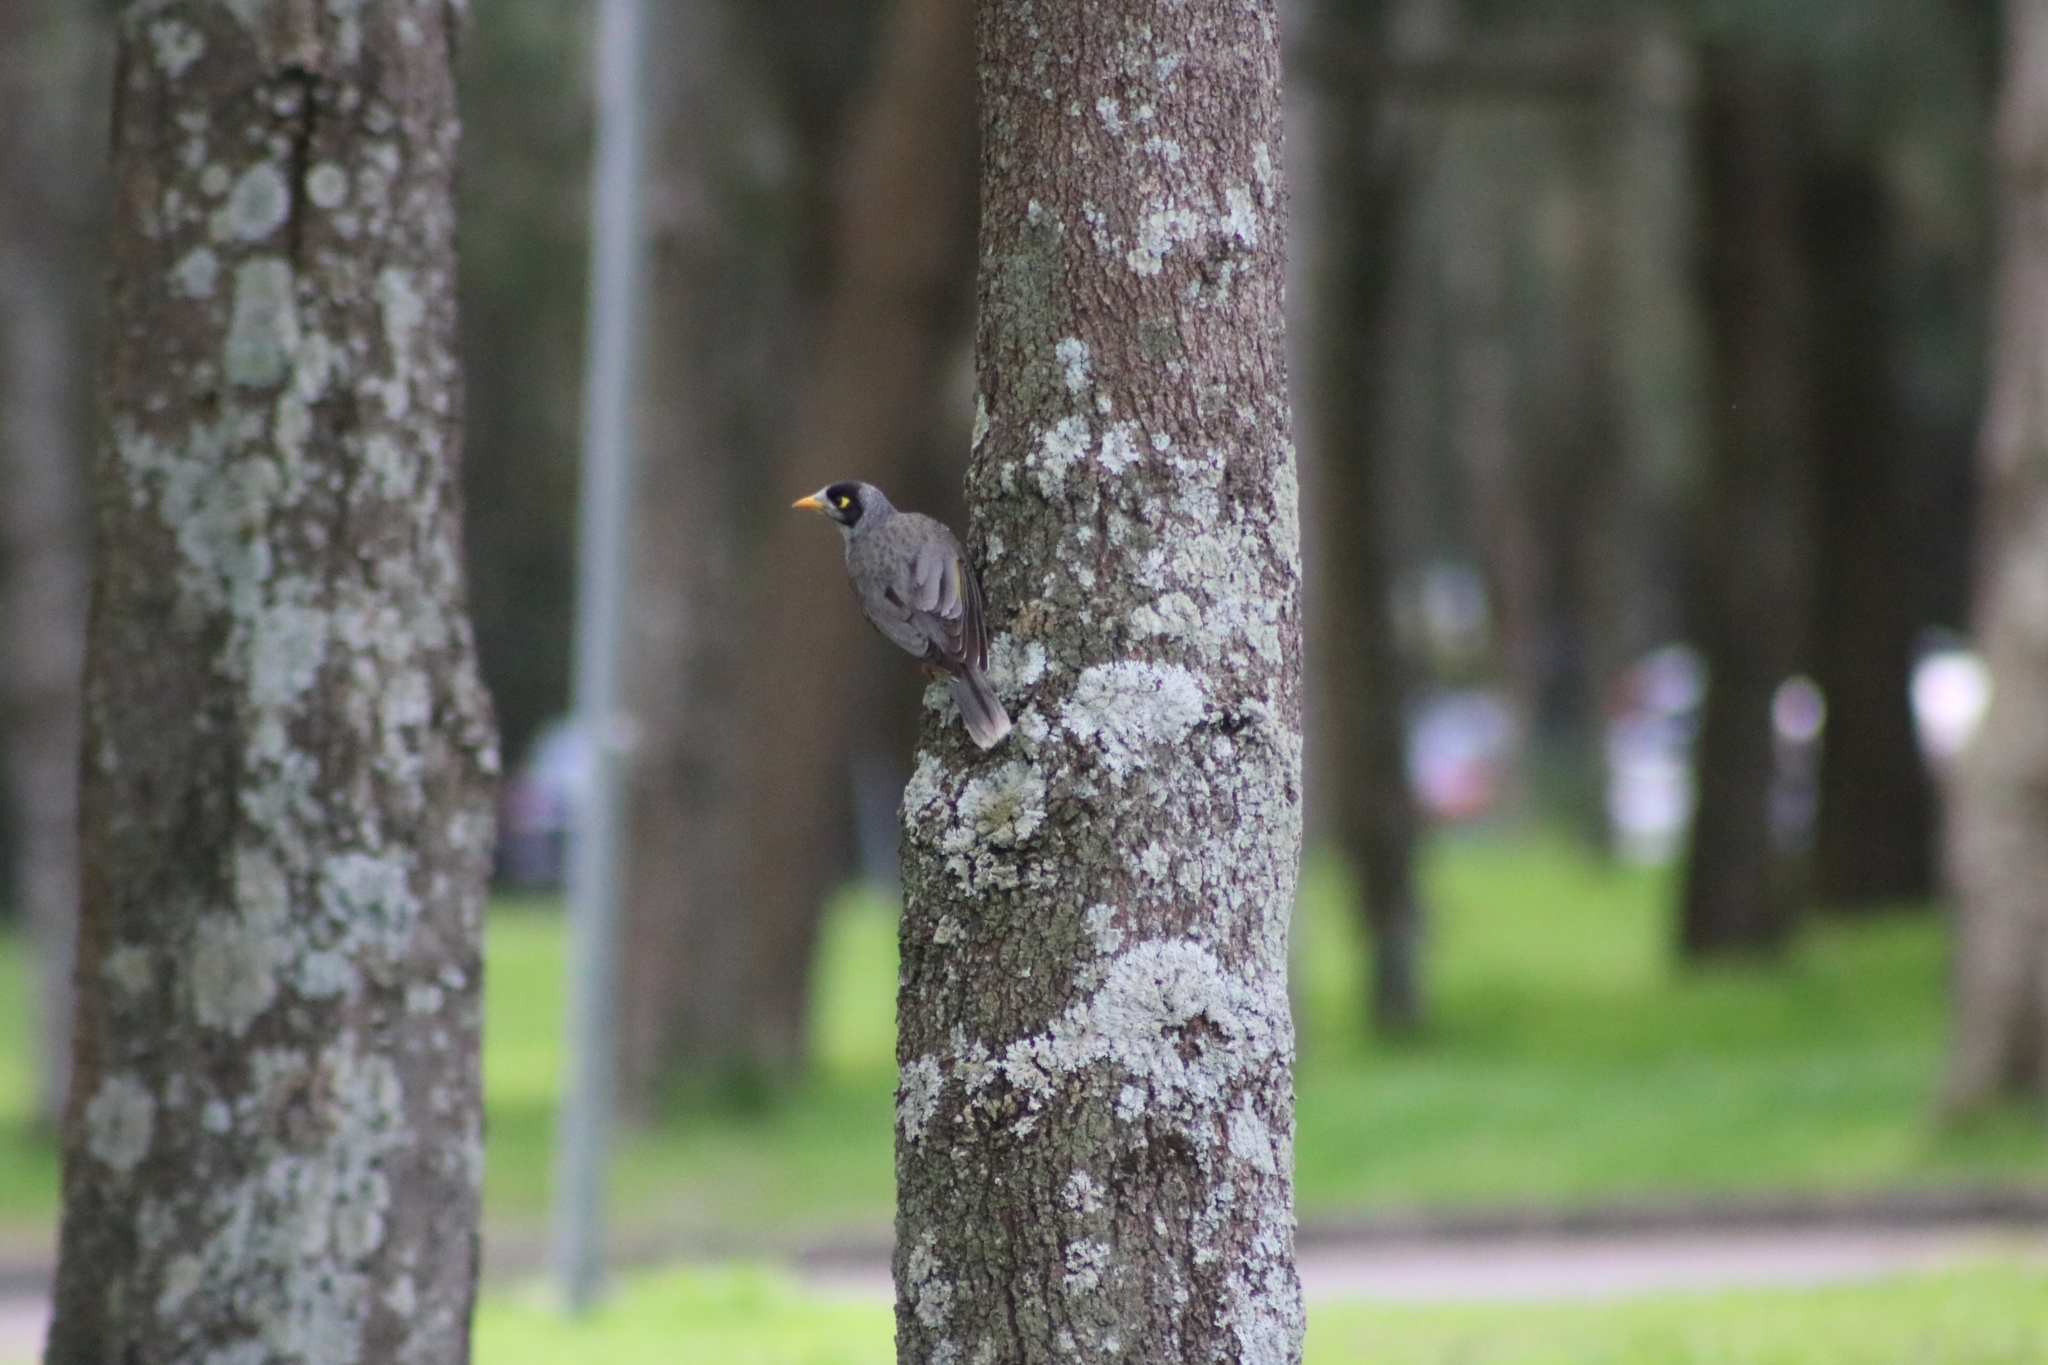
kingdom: Animalia
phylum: Chordata
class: Aves
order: Passeriformes
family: Meliphagidae
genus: Manorina
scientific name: Manorina melanocephala
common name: Noisy miner
